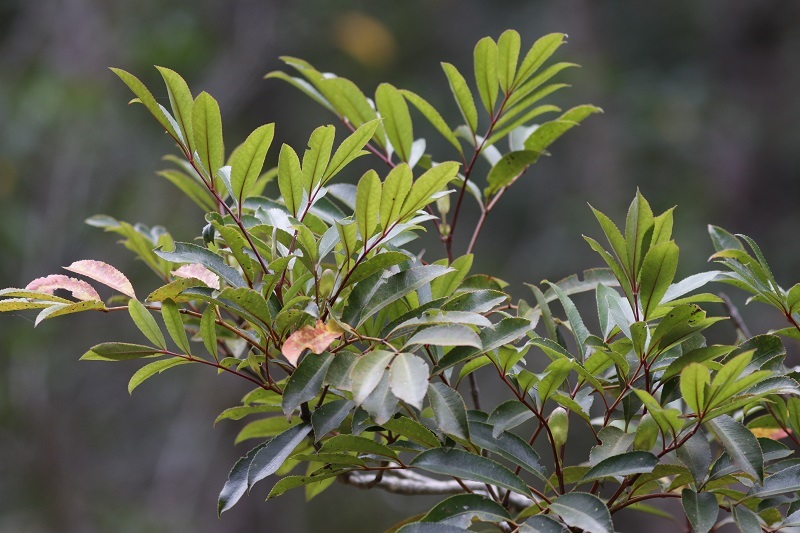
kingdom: Plantae
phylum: Tracheophyta
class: Magnoliopsida
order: Oxalidales
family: Cunoniaceae
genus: Cunonia
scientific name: Cunonia capensis
